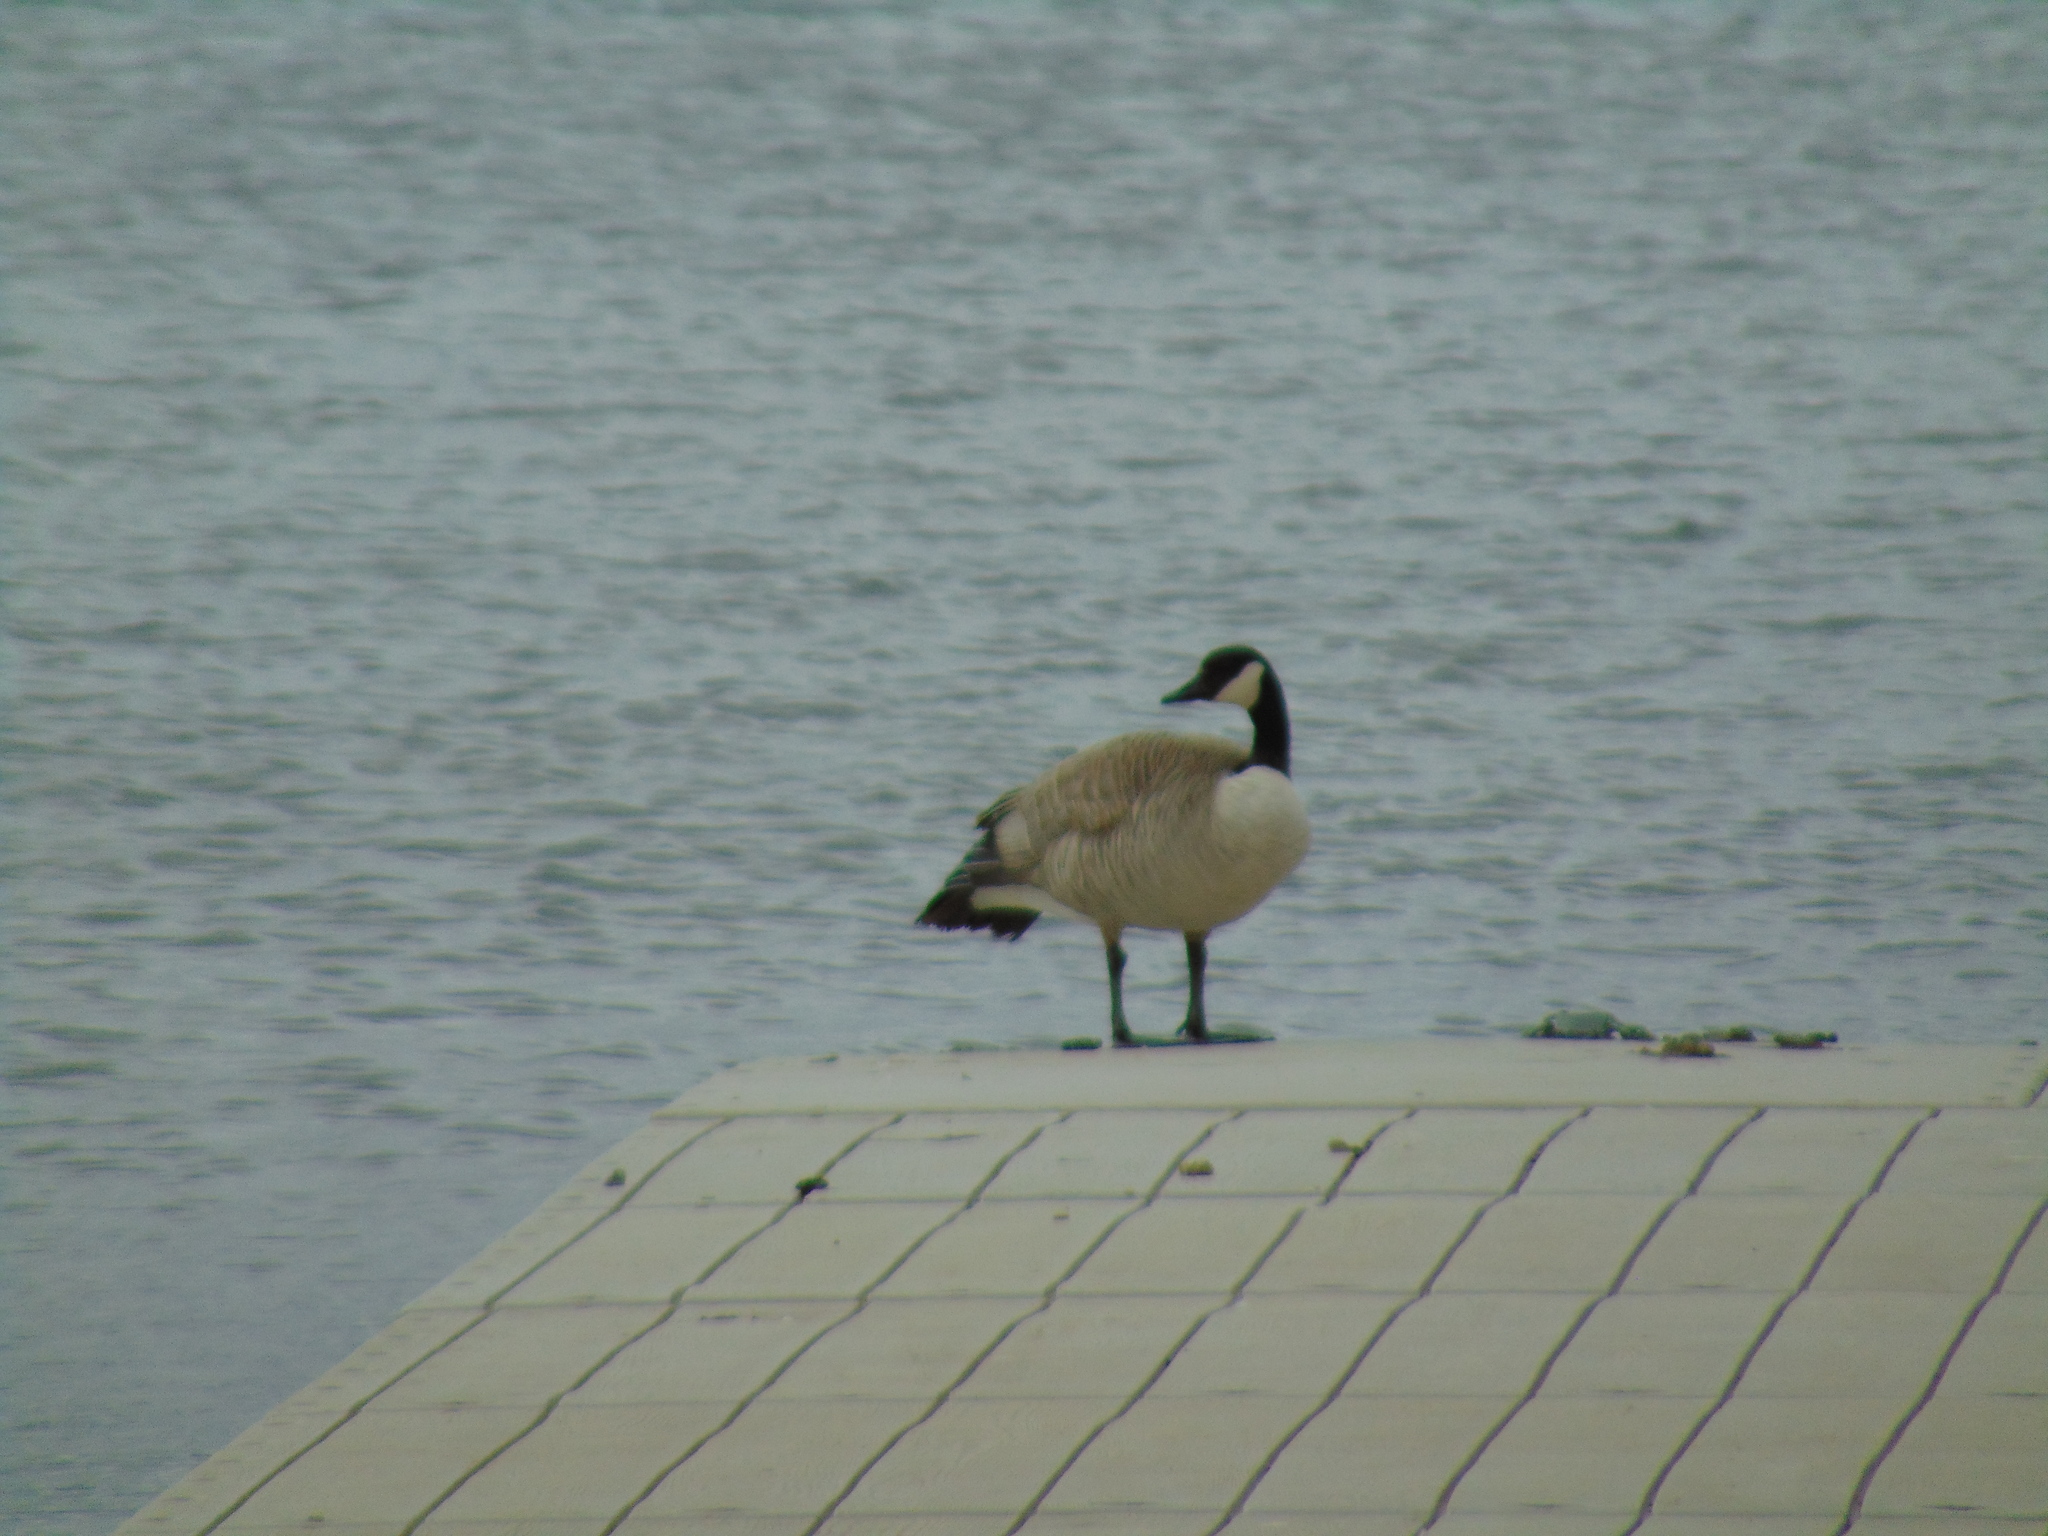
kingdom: Animalia
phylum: Chordata
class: Aves
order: Anseriformes
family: Anatidae
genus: Branta
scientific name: Branta canadensis
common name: Canada goose
